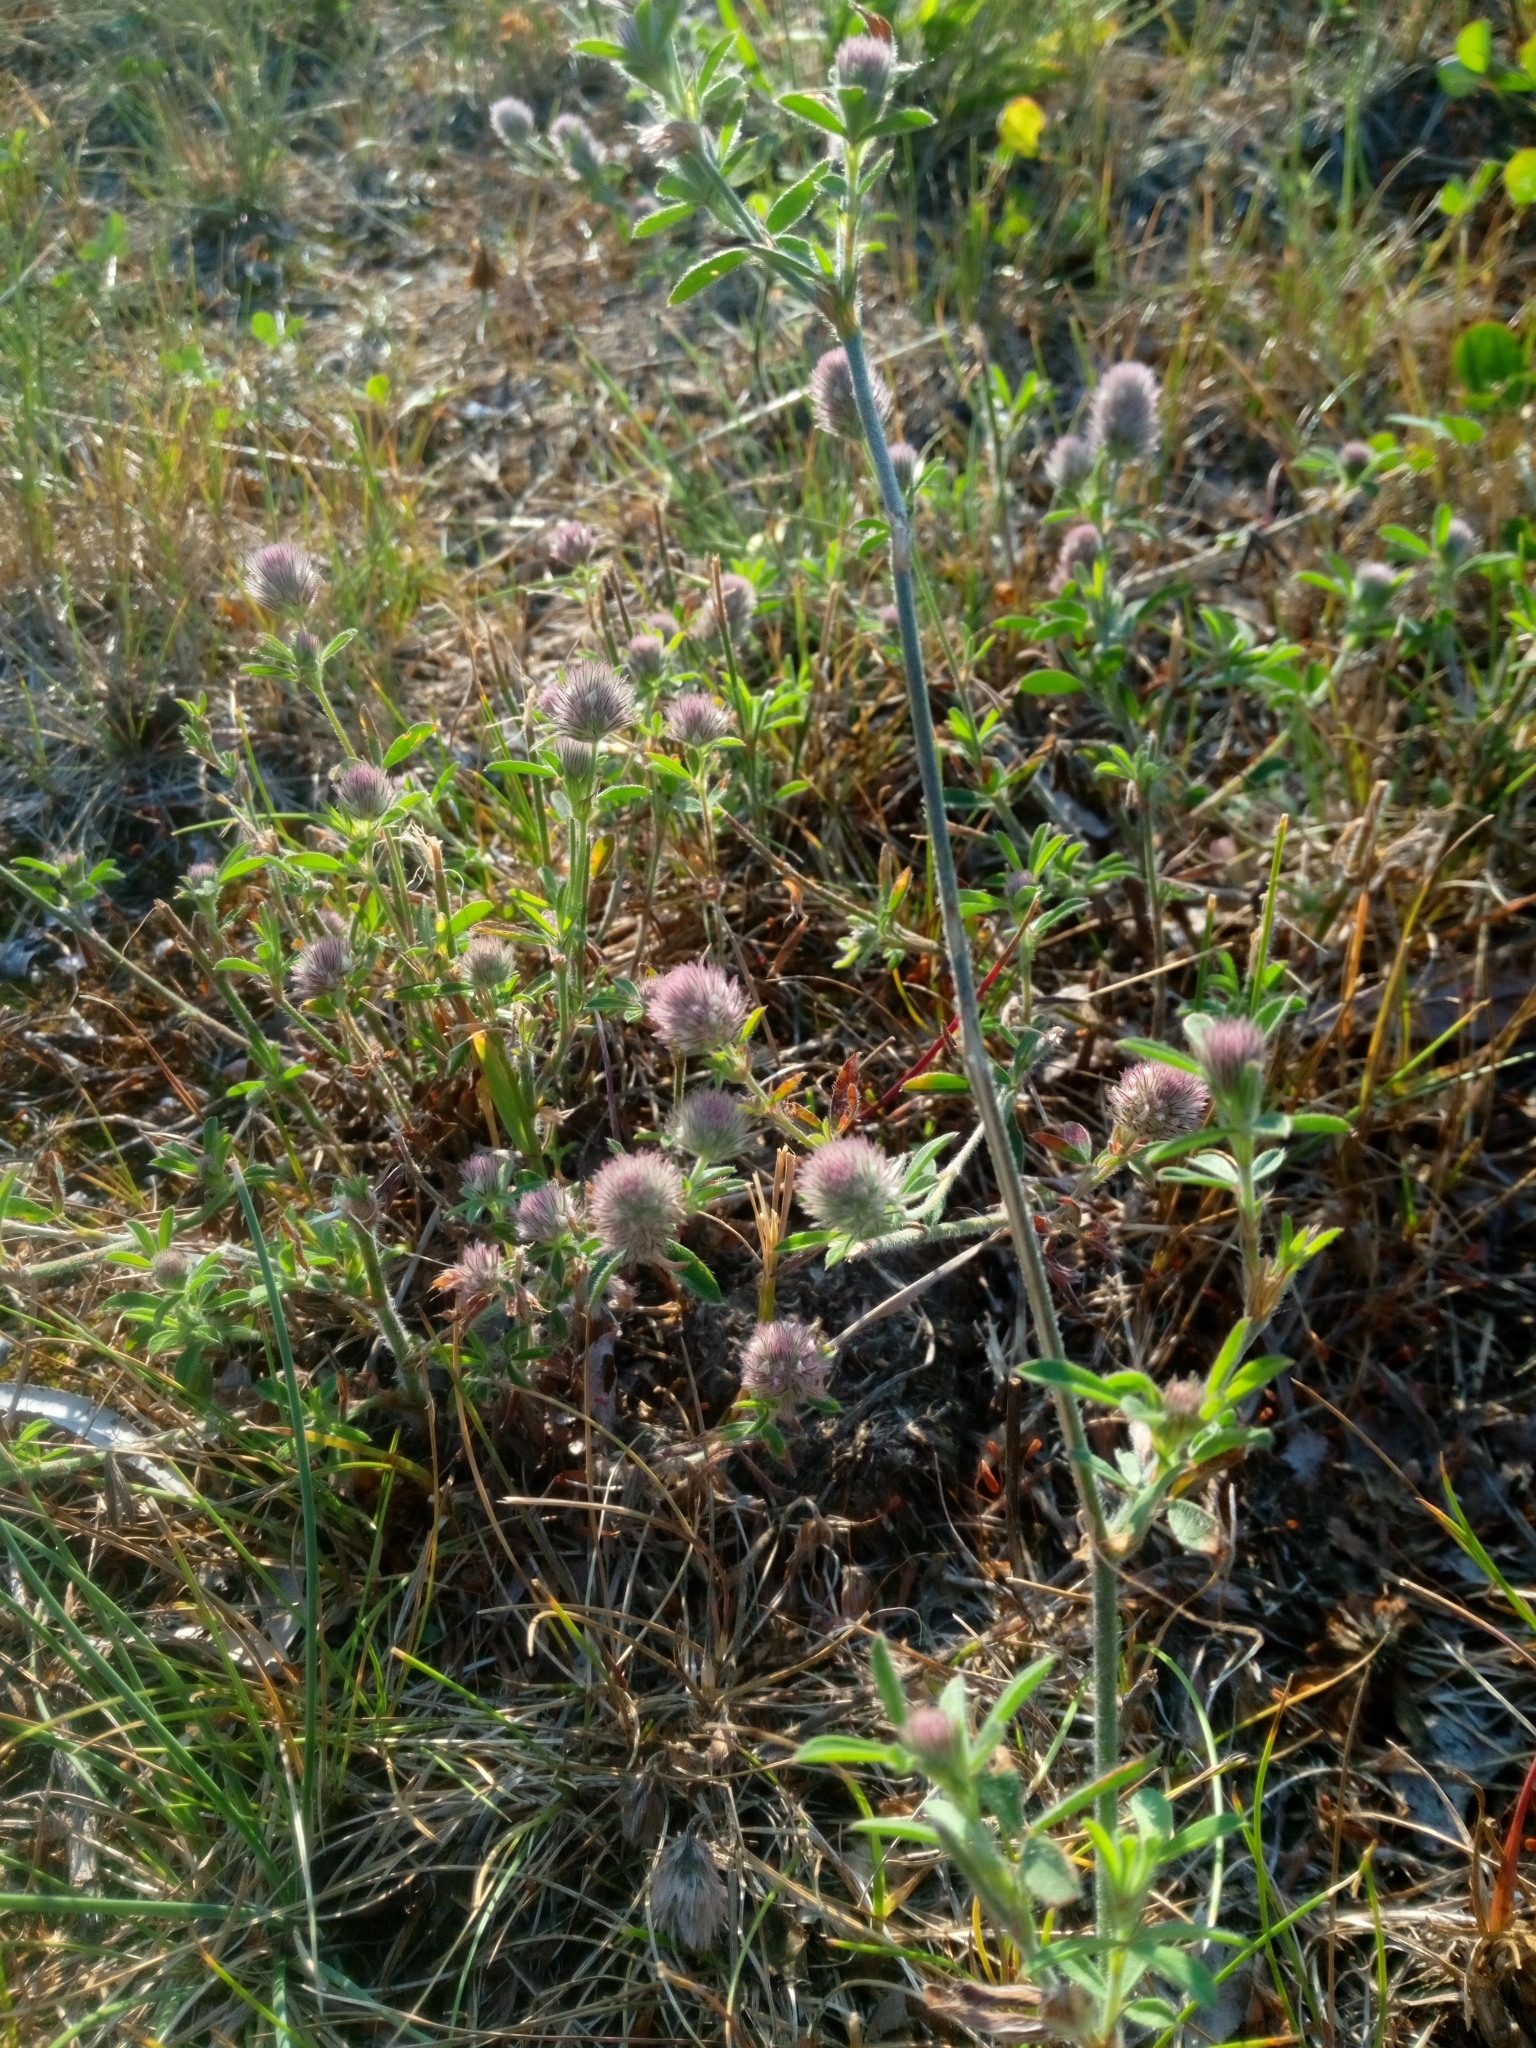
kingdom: Plantae
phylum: Tracheophyta
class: Magnoliopsida
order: Fabales
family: Fabaceae
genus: Trifolium
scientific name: Trifolium arvense
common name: Hare's-foot clover
